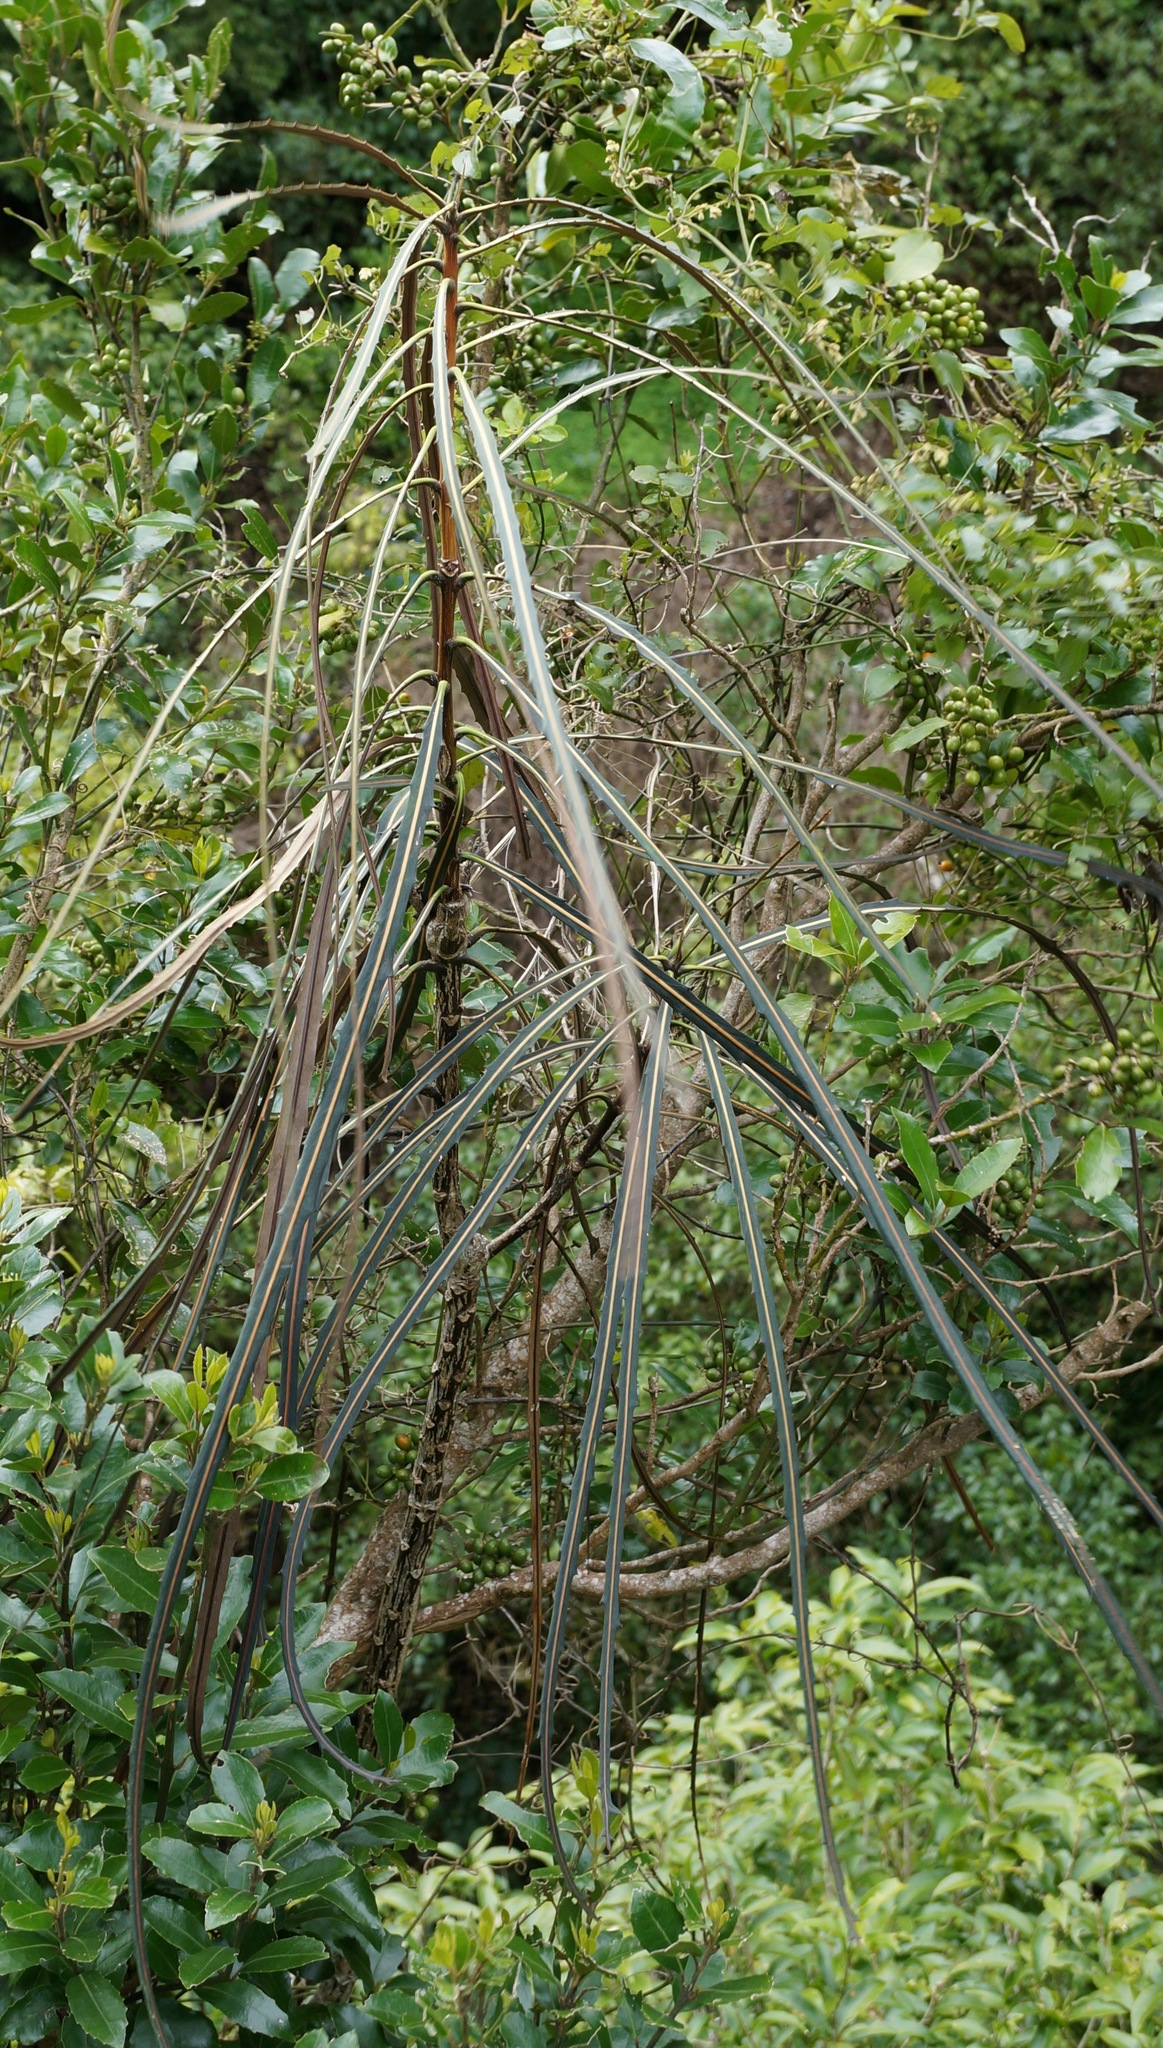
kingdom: Plantae
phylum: Tracheophyta
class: Magnoliopsida
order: Apiales
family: Araliaceae
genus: Pseudopanax
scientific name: Pseudopanax crassifolius
